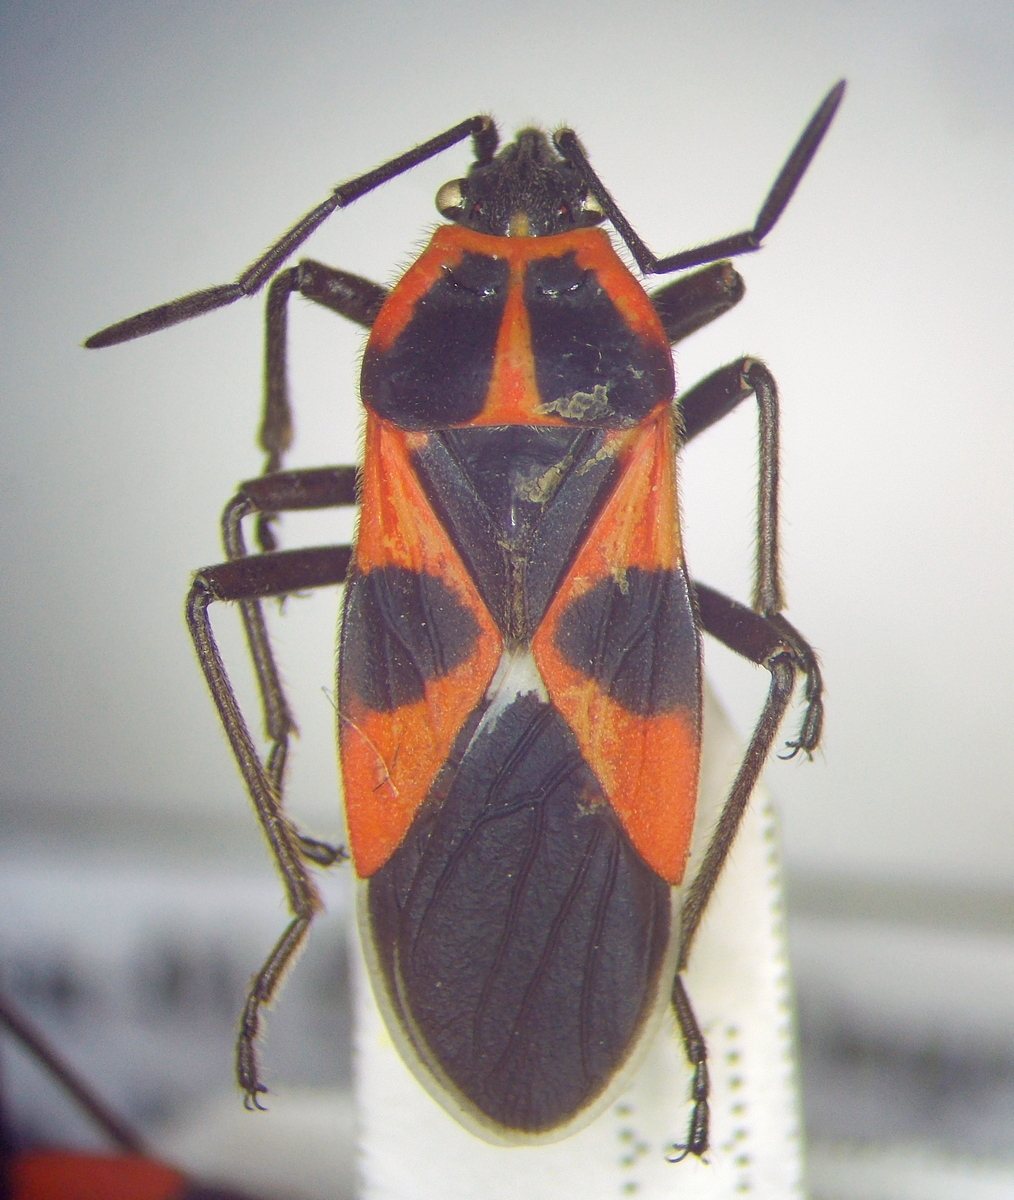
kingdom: Animalia
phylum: Arthropoda
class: Insecta
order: Hemiptera
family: Lygaeidae
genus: Tropidothorax
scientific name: Tropidothorax leucopterus
